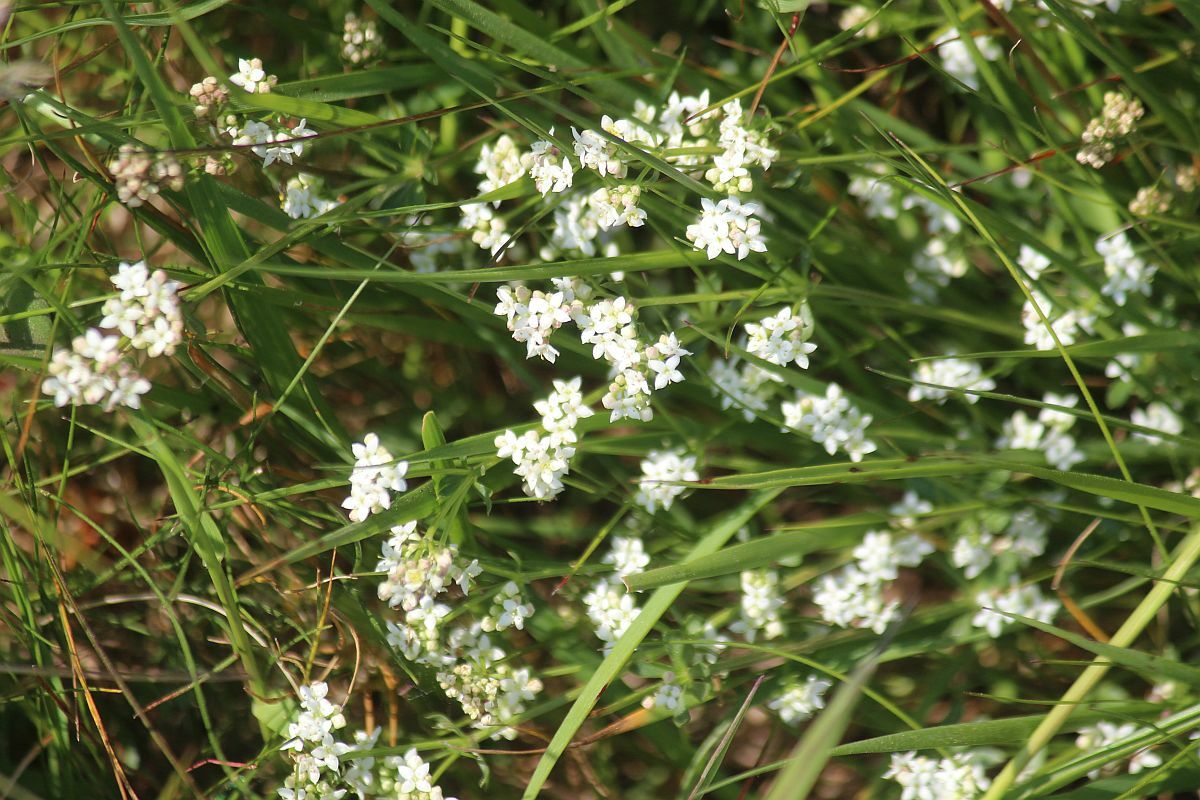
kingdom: Plantae
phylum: Tracheophyta
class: Magnoliopsida
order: Gentianales
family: Rubiaceae
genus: Galium
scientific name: Galium saxatile
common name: Heath bedstraw
